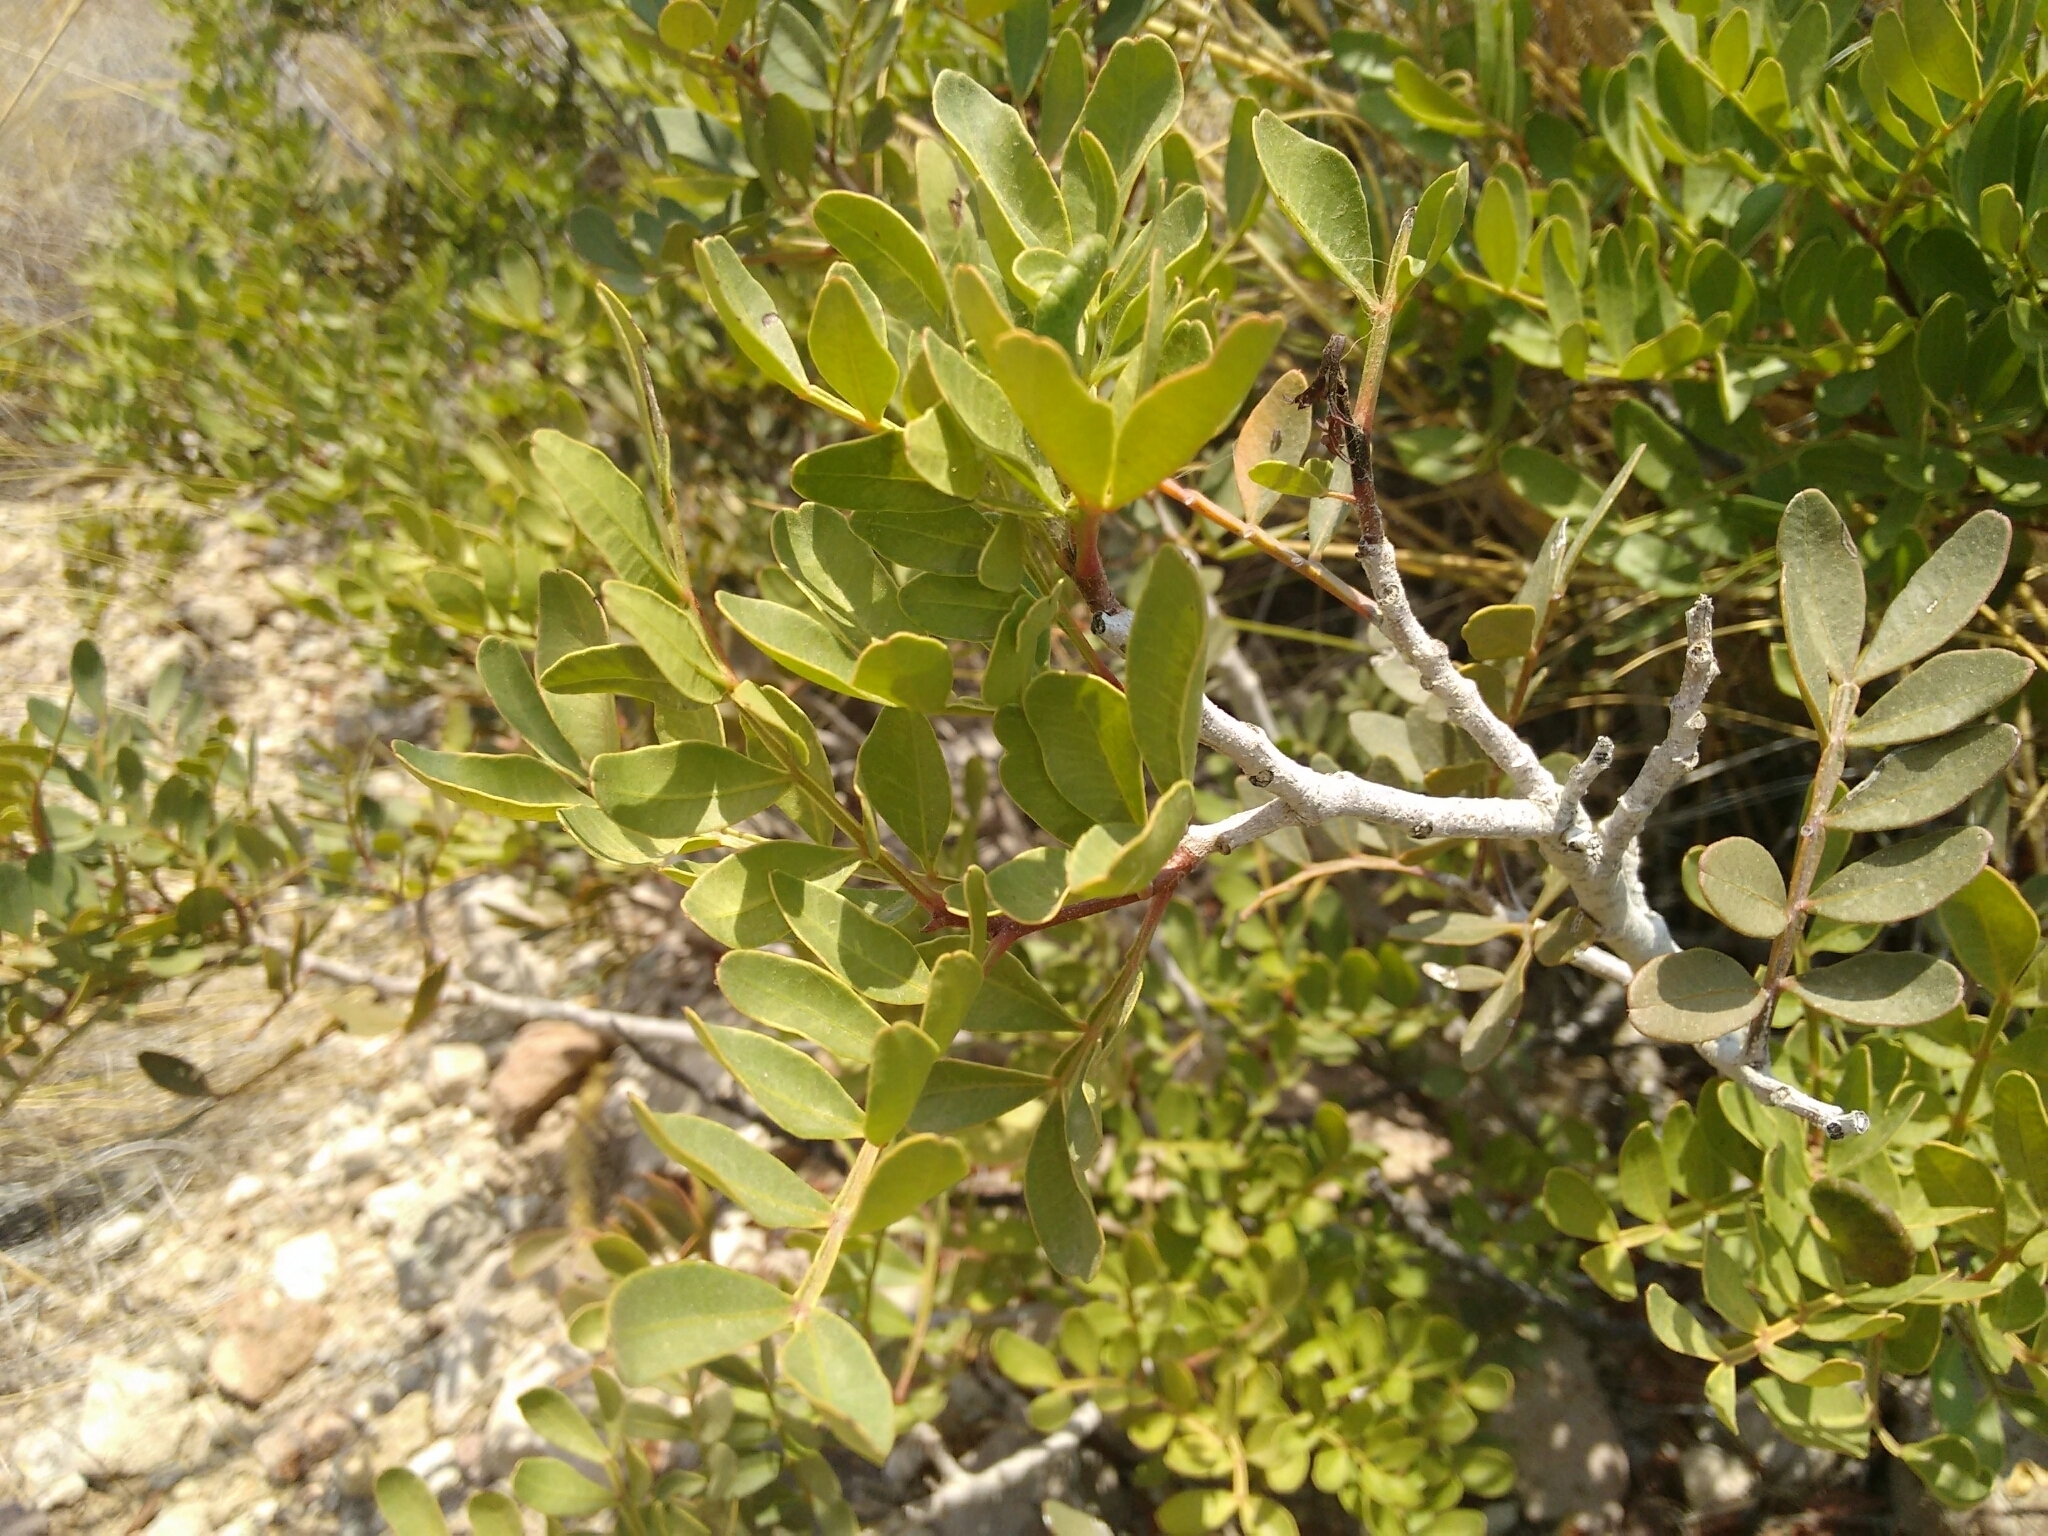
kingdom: Plantae
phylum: Tracheophyta
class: Magnoliopsida
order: Sapindales
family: Anacardiaceae
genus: Pistacia
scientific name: Pistacia lentiscus
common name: Lentisk
